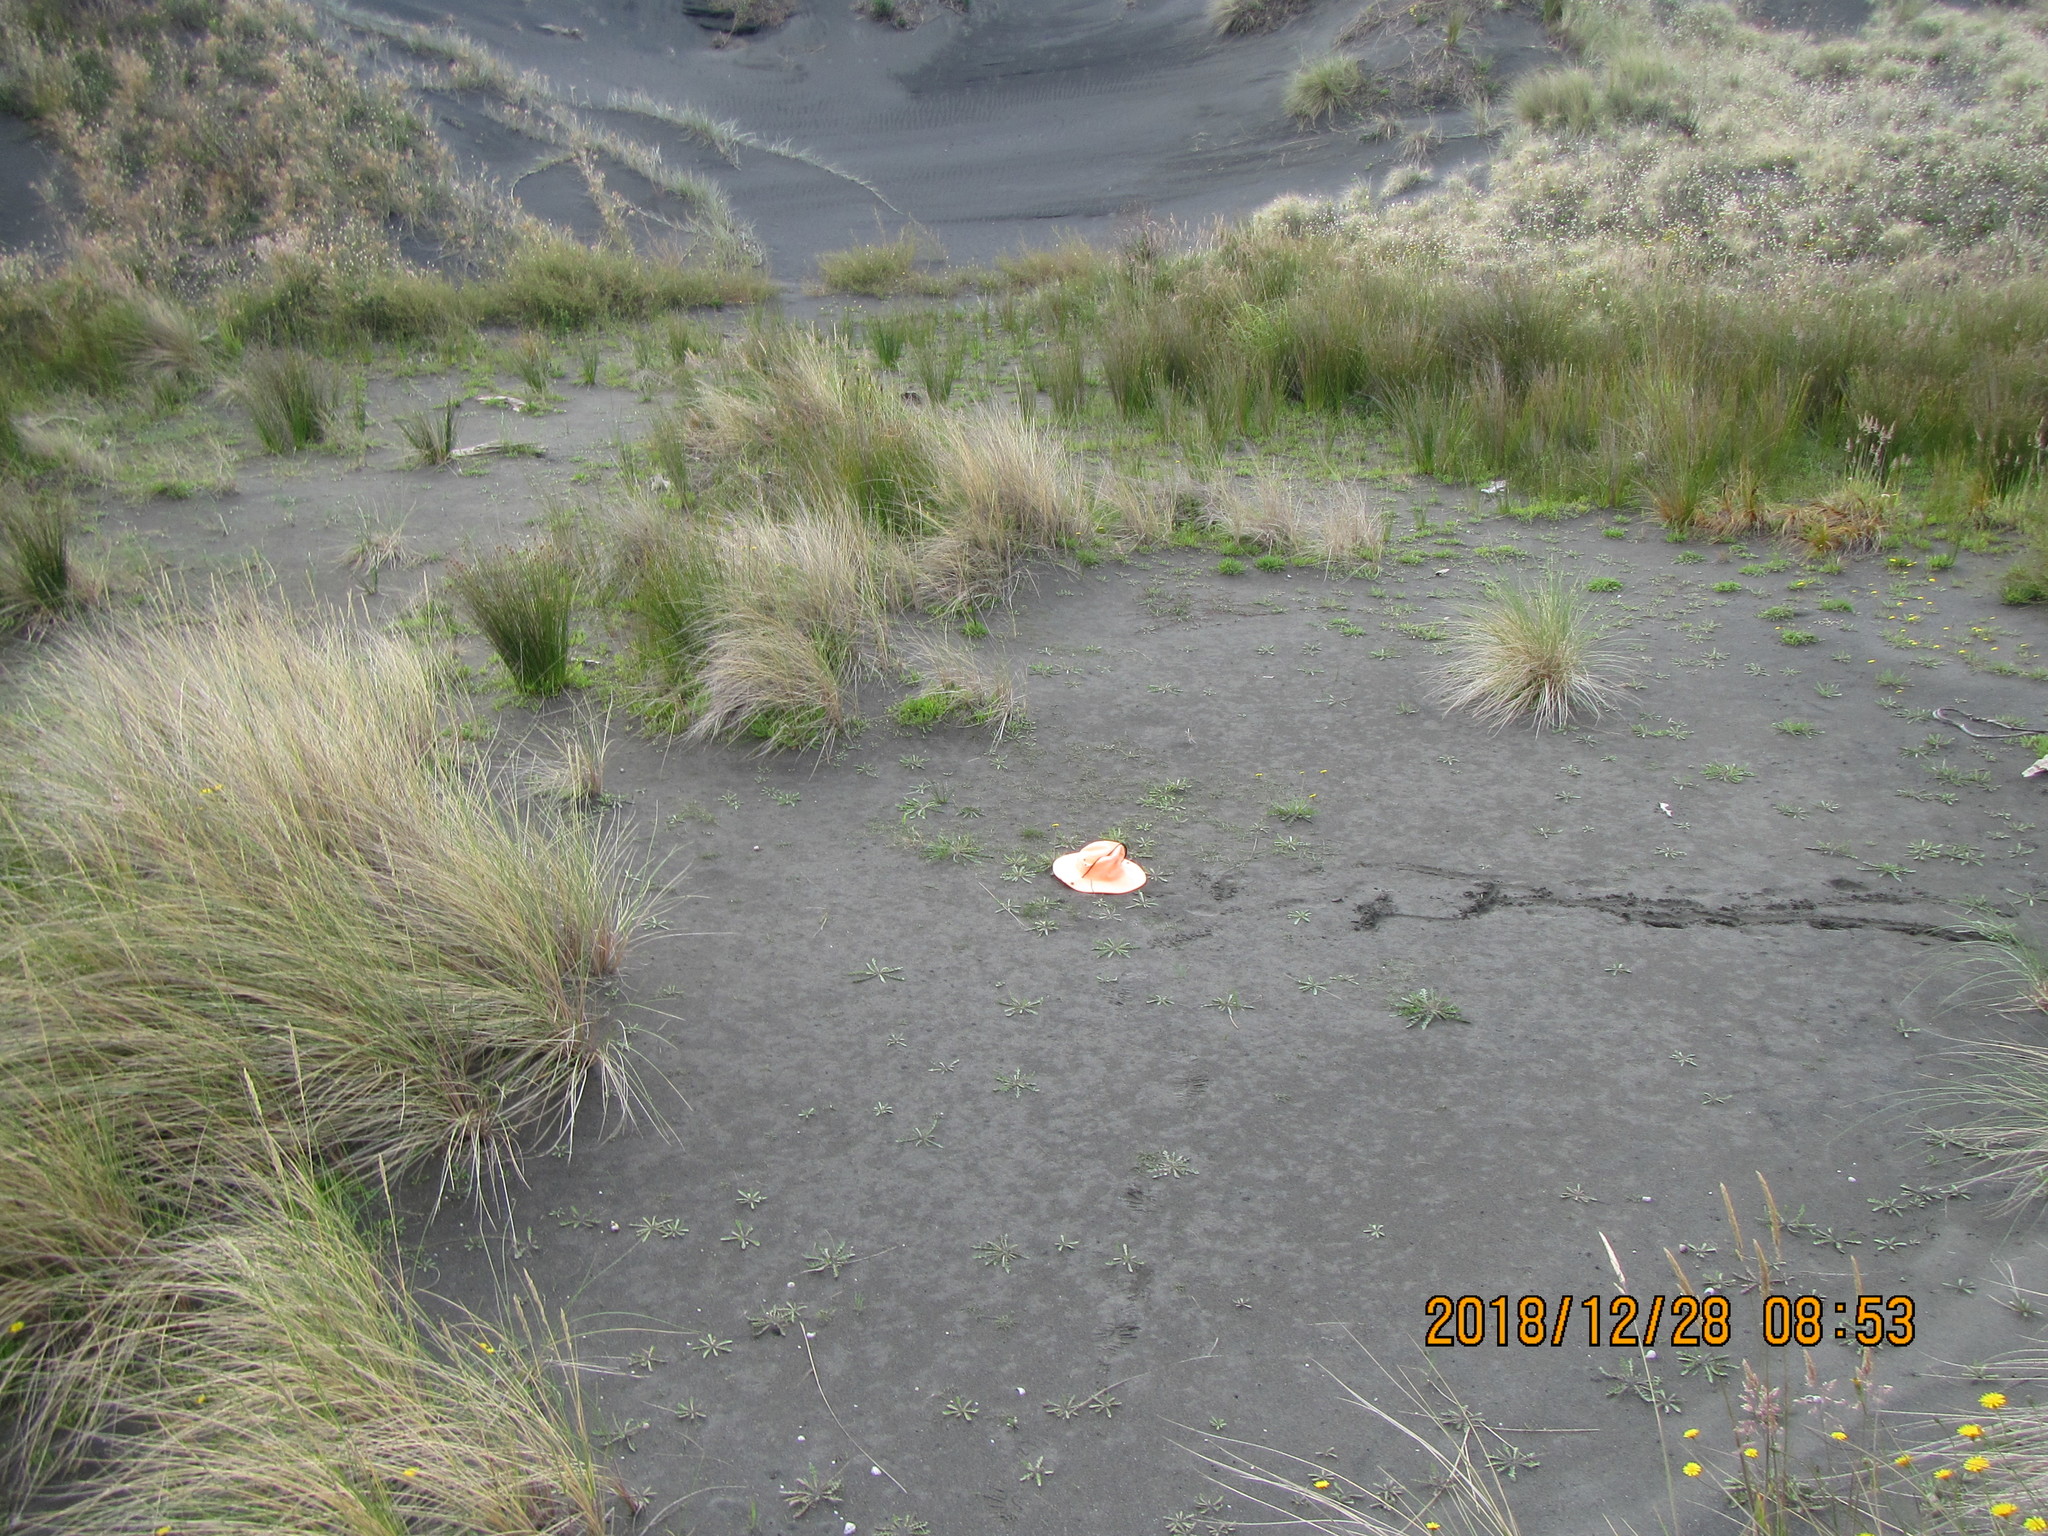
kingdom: Plantae
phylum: Tracheophyta
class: Liliopsida
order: Alismatales
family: Juncaginaceae
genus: Triglochin
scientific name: Triglochin striata
